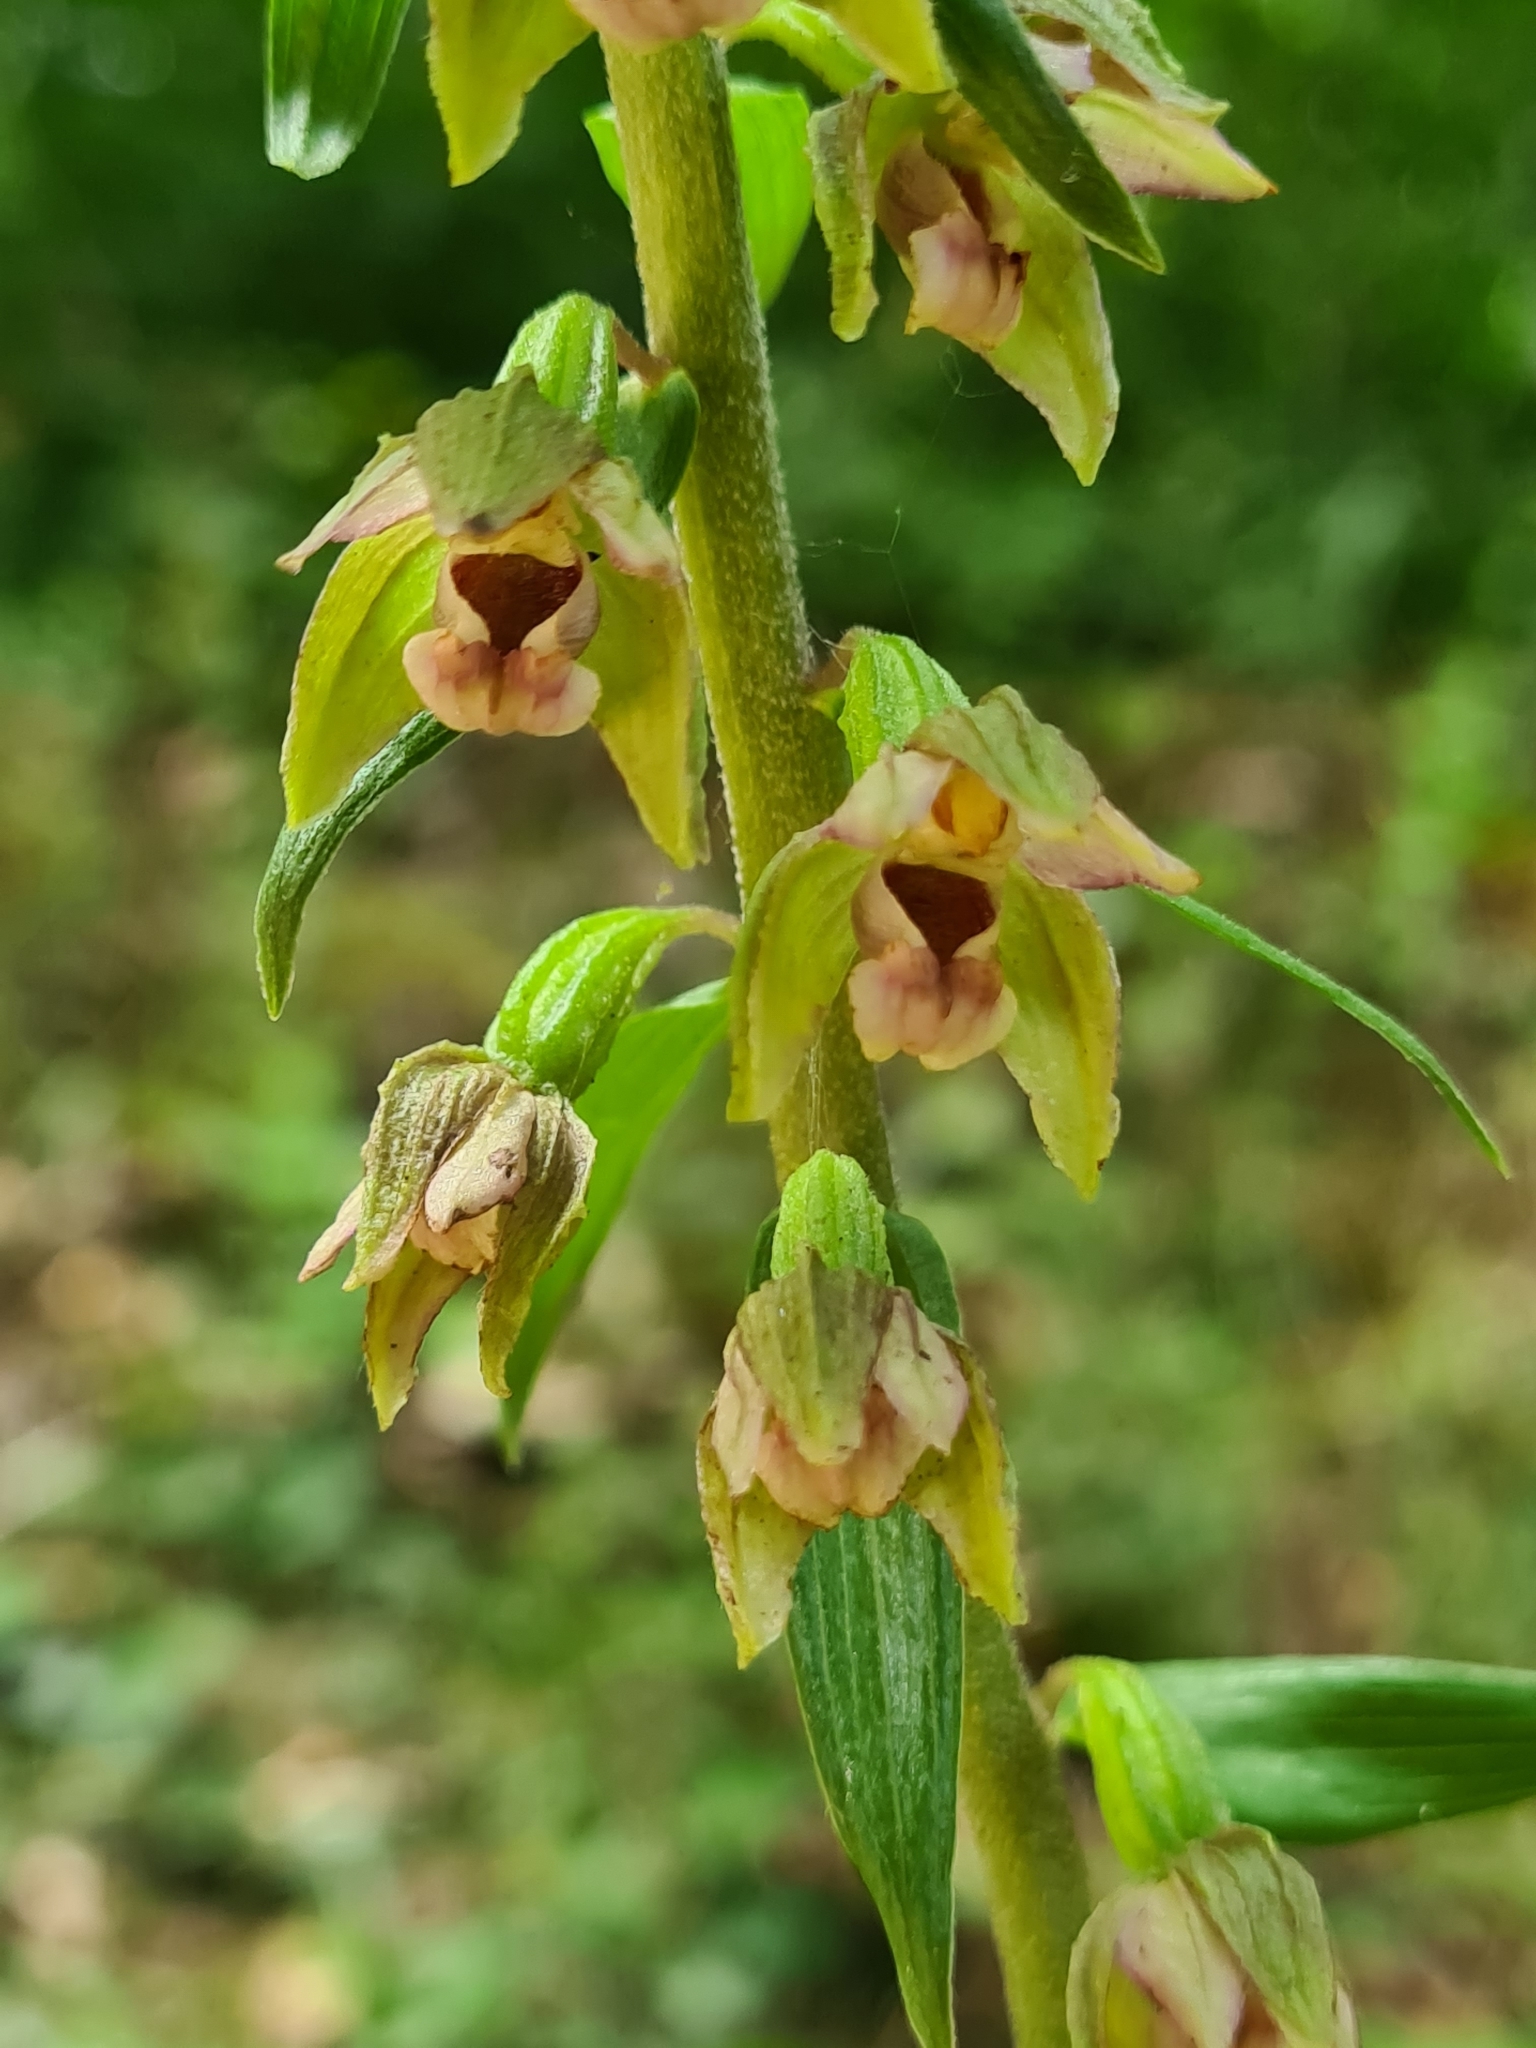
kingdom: Plantae
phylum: Tracheophyta
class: Liliopsida
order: Asparagales
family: Orchidaceae
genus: Epipactis
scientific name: Epipactis helleborine
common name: Broad-leaved helleborine
